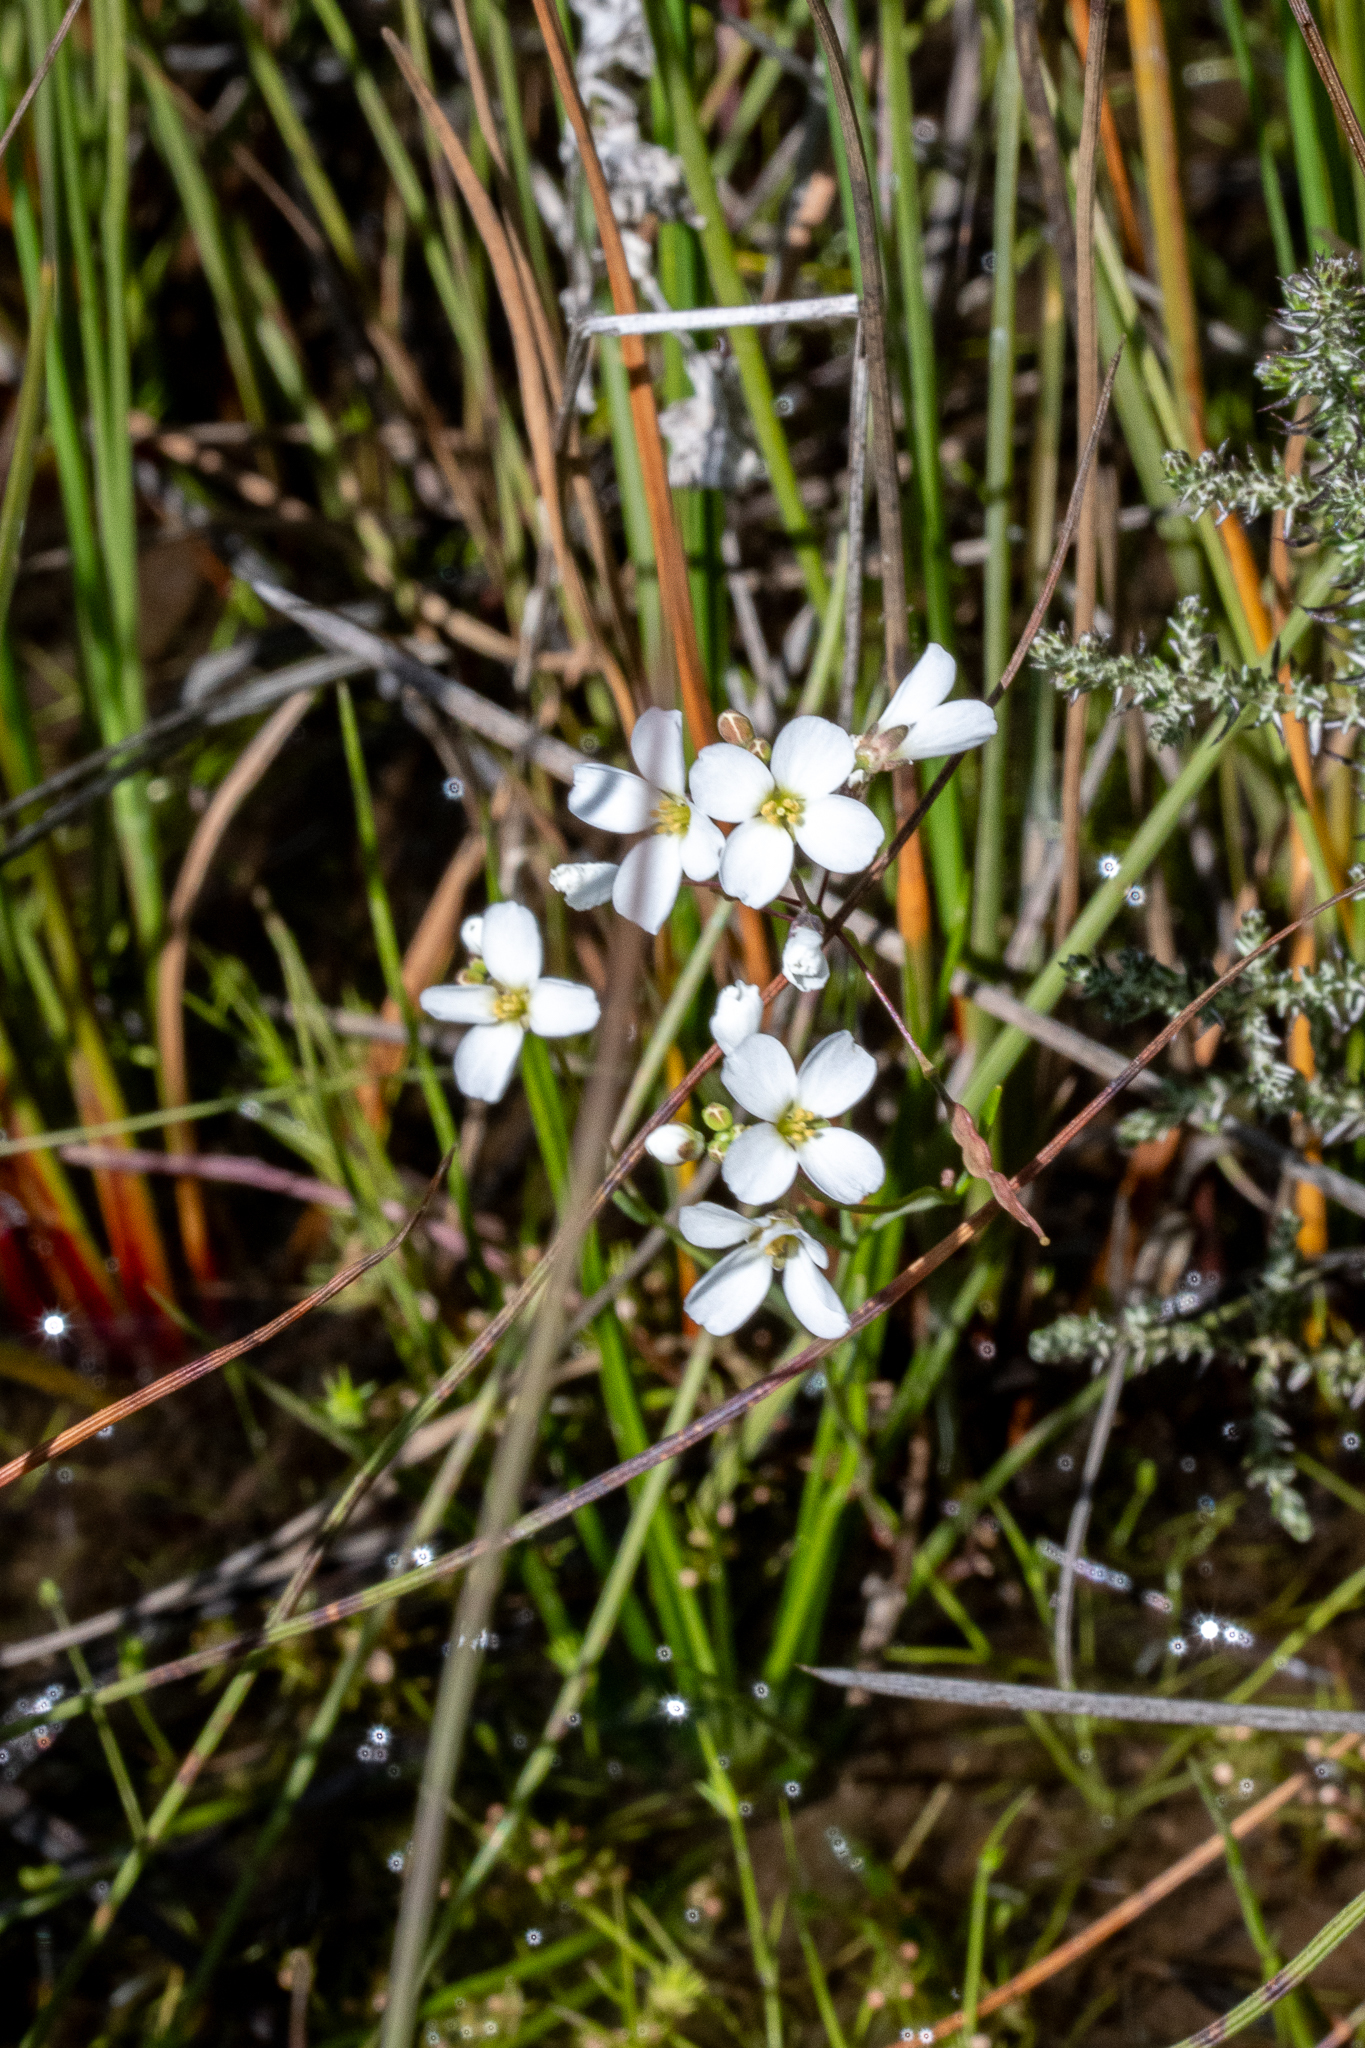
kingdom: Plantae
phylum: Tracheophyta
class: Magnoliopsida
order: Brassicales
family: Brassicaceae
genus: Heliophila
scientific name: Heliophila pusilla
